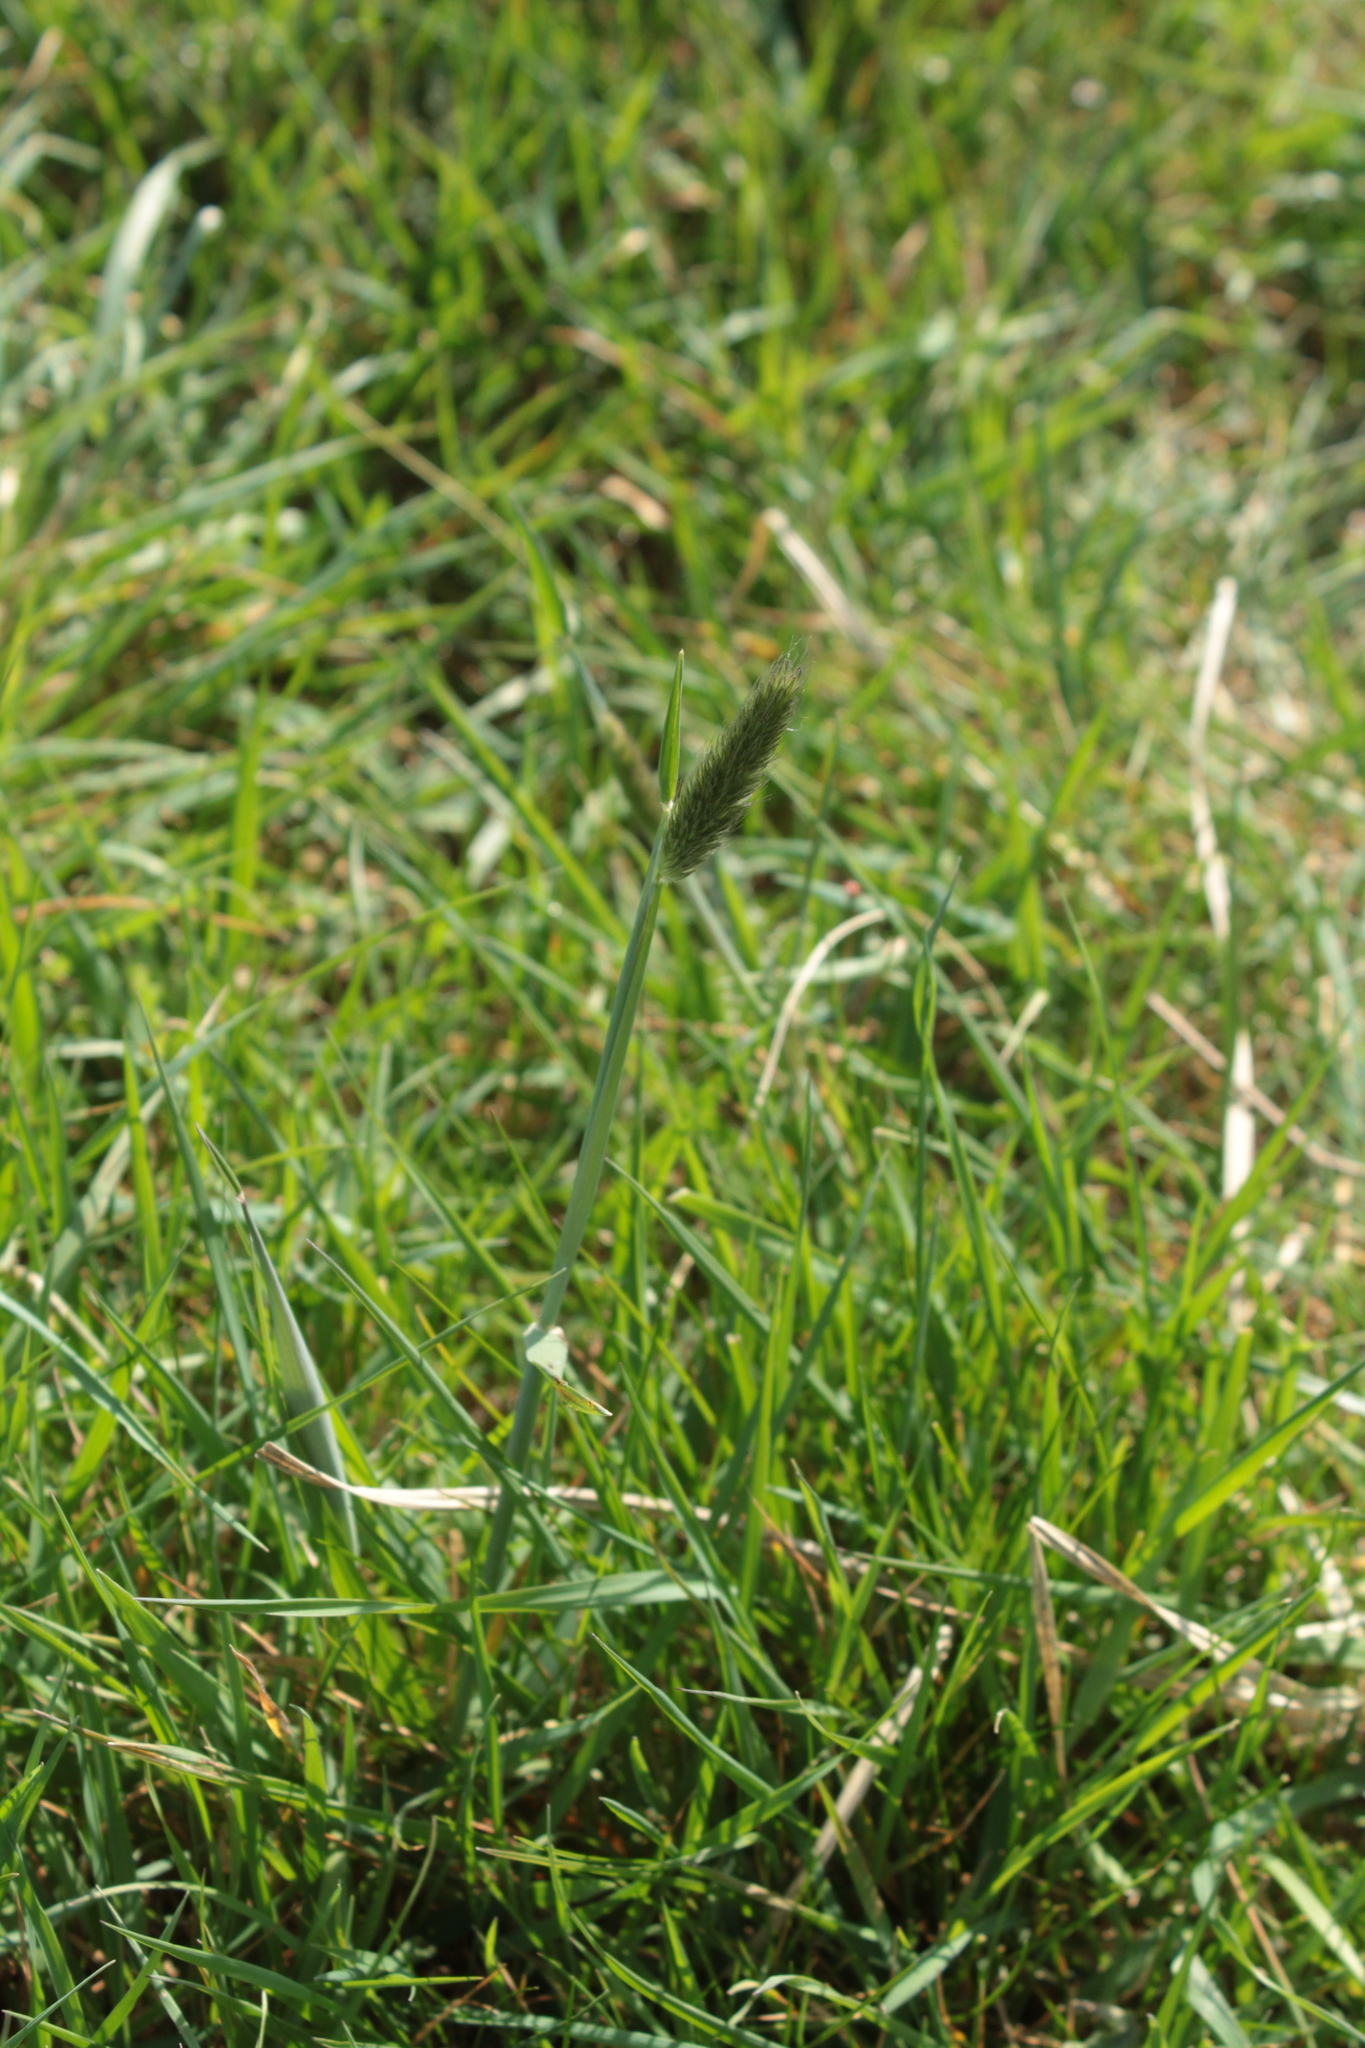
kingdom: Plantae
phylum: Tracheophyta
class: Liliopsida
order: Poales
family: Poaceae
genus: Alopecurus
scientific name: Alopecurus pratensis
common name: Meadow foxtail
